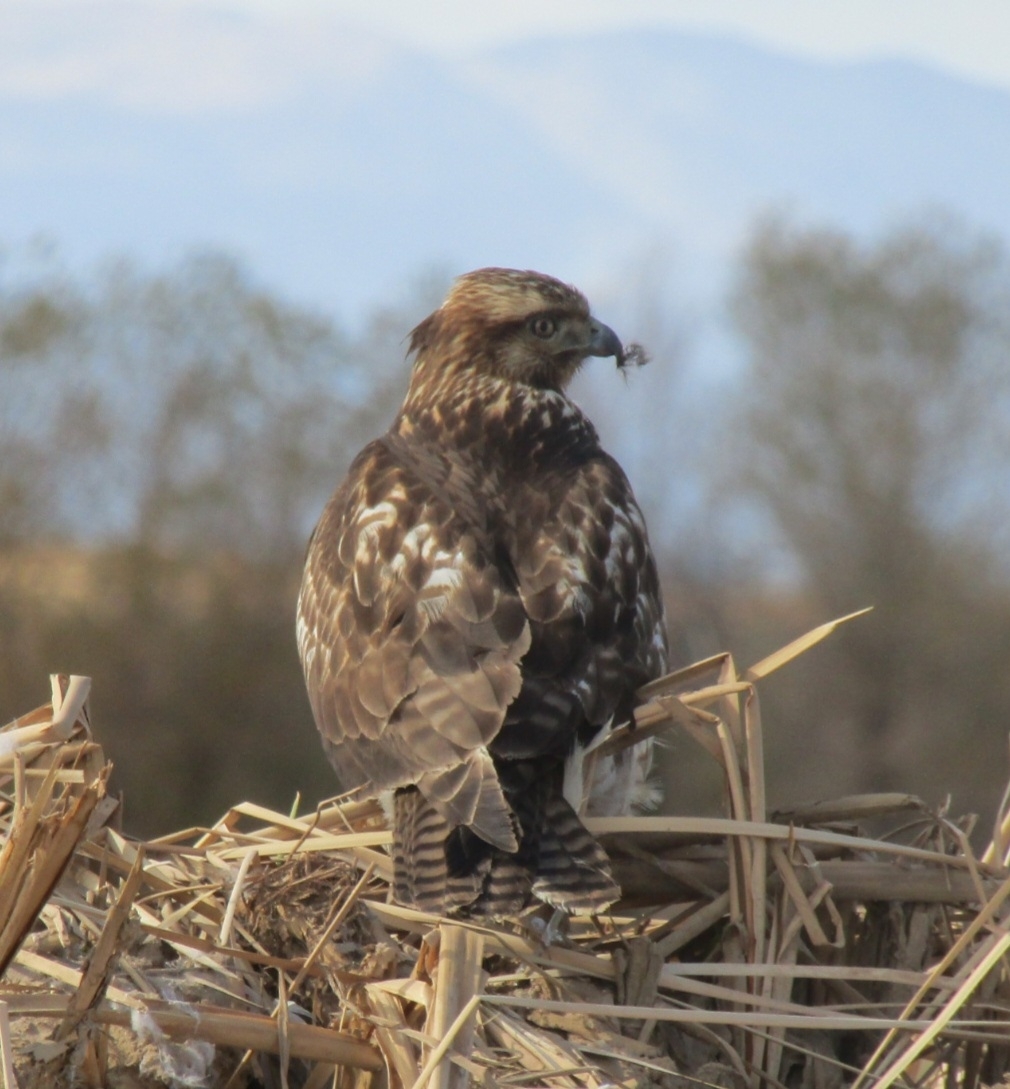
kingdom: Animalia
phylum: Chordata
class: Aves
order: Accipitriformes
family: Accipitridae
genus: Buteo
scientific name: Buteo jamaicensis
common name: Red-tailed hawk
